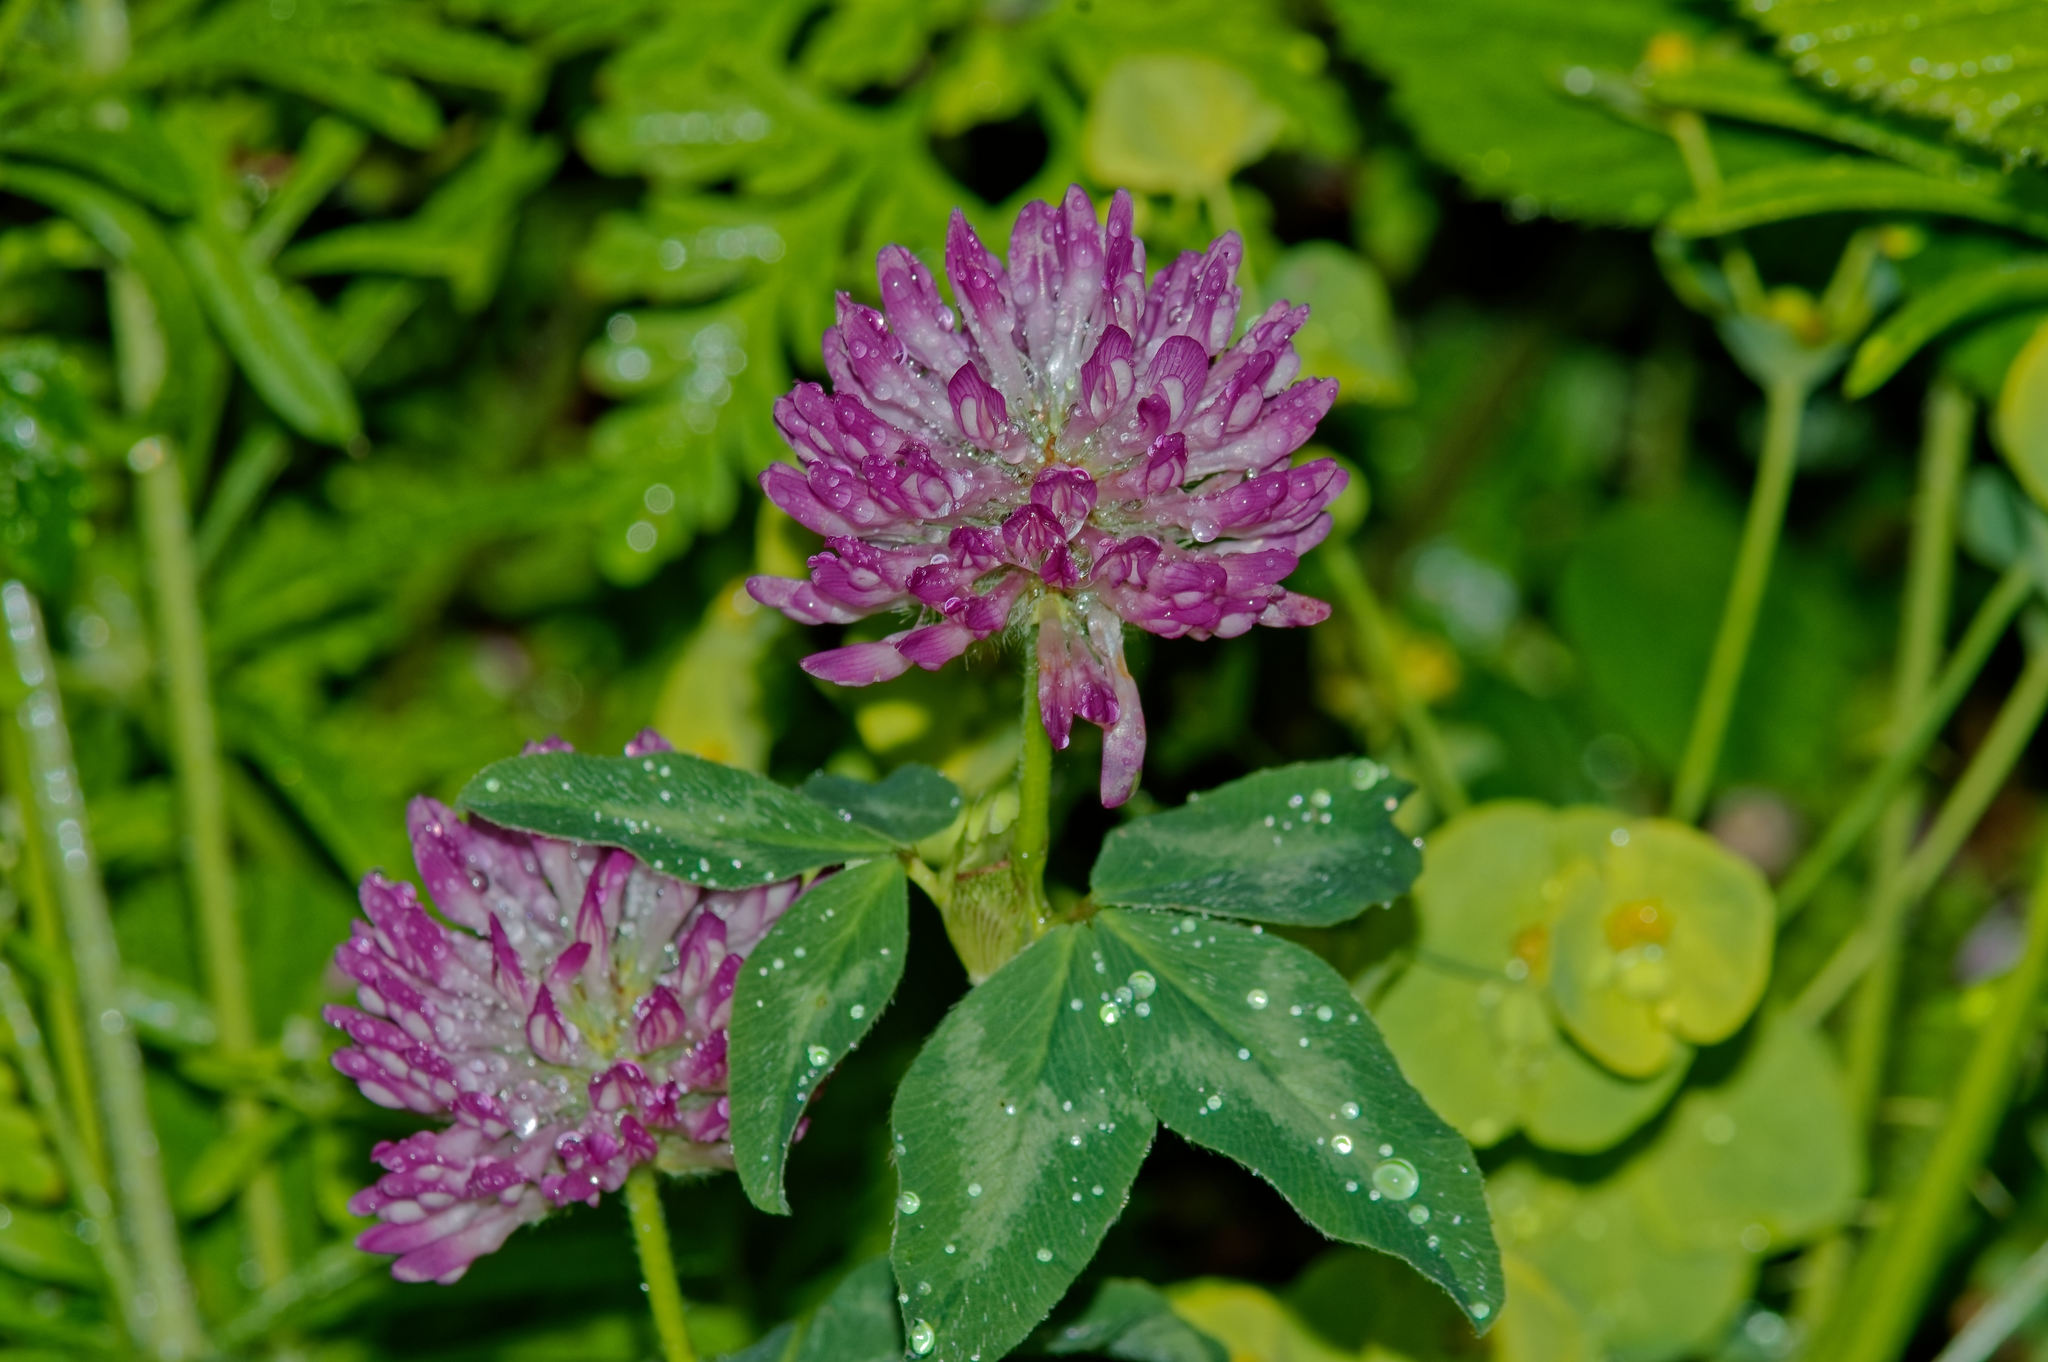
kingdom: Plantae
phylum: Tracheophyta
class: Magnoliopsida
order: Fabales
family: Fabaceae
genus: Trifolium
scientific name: Trifolium pratense
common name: Red clover
